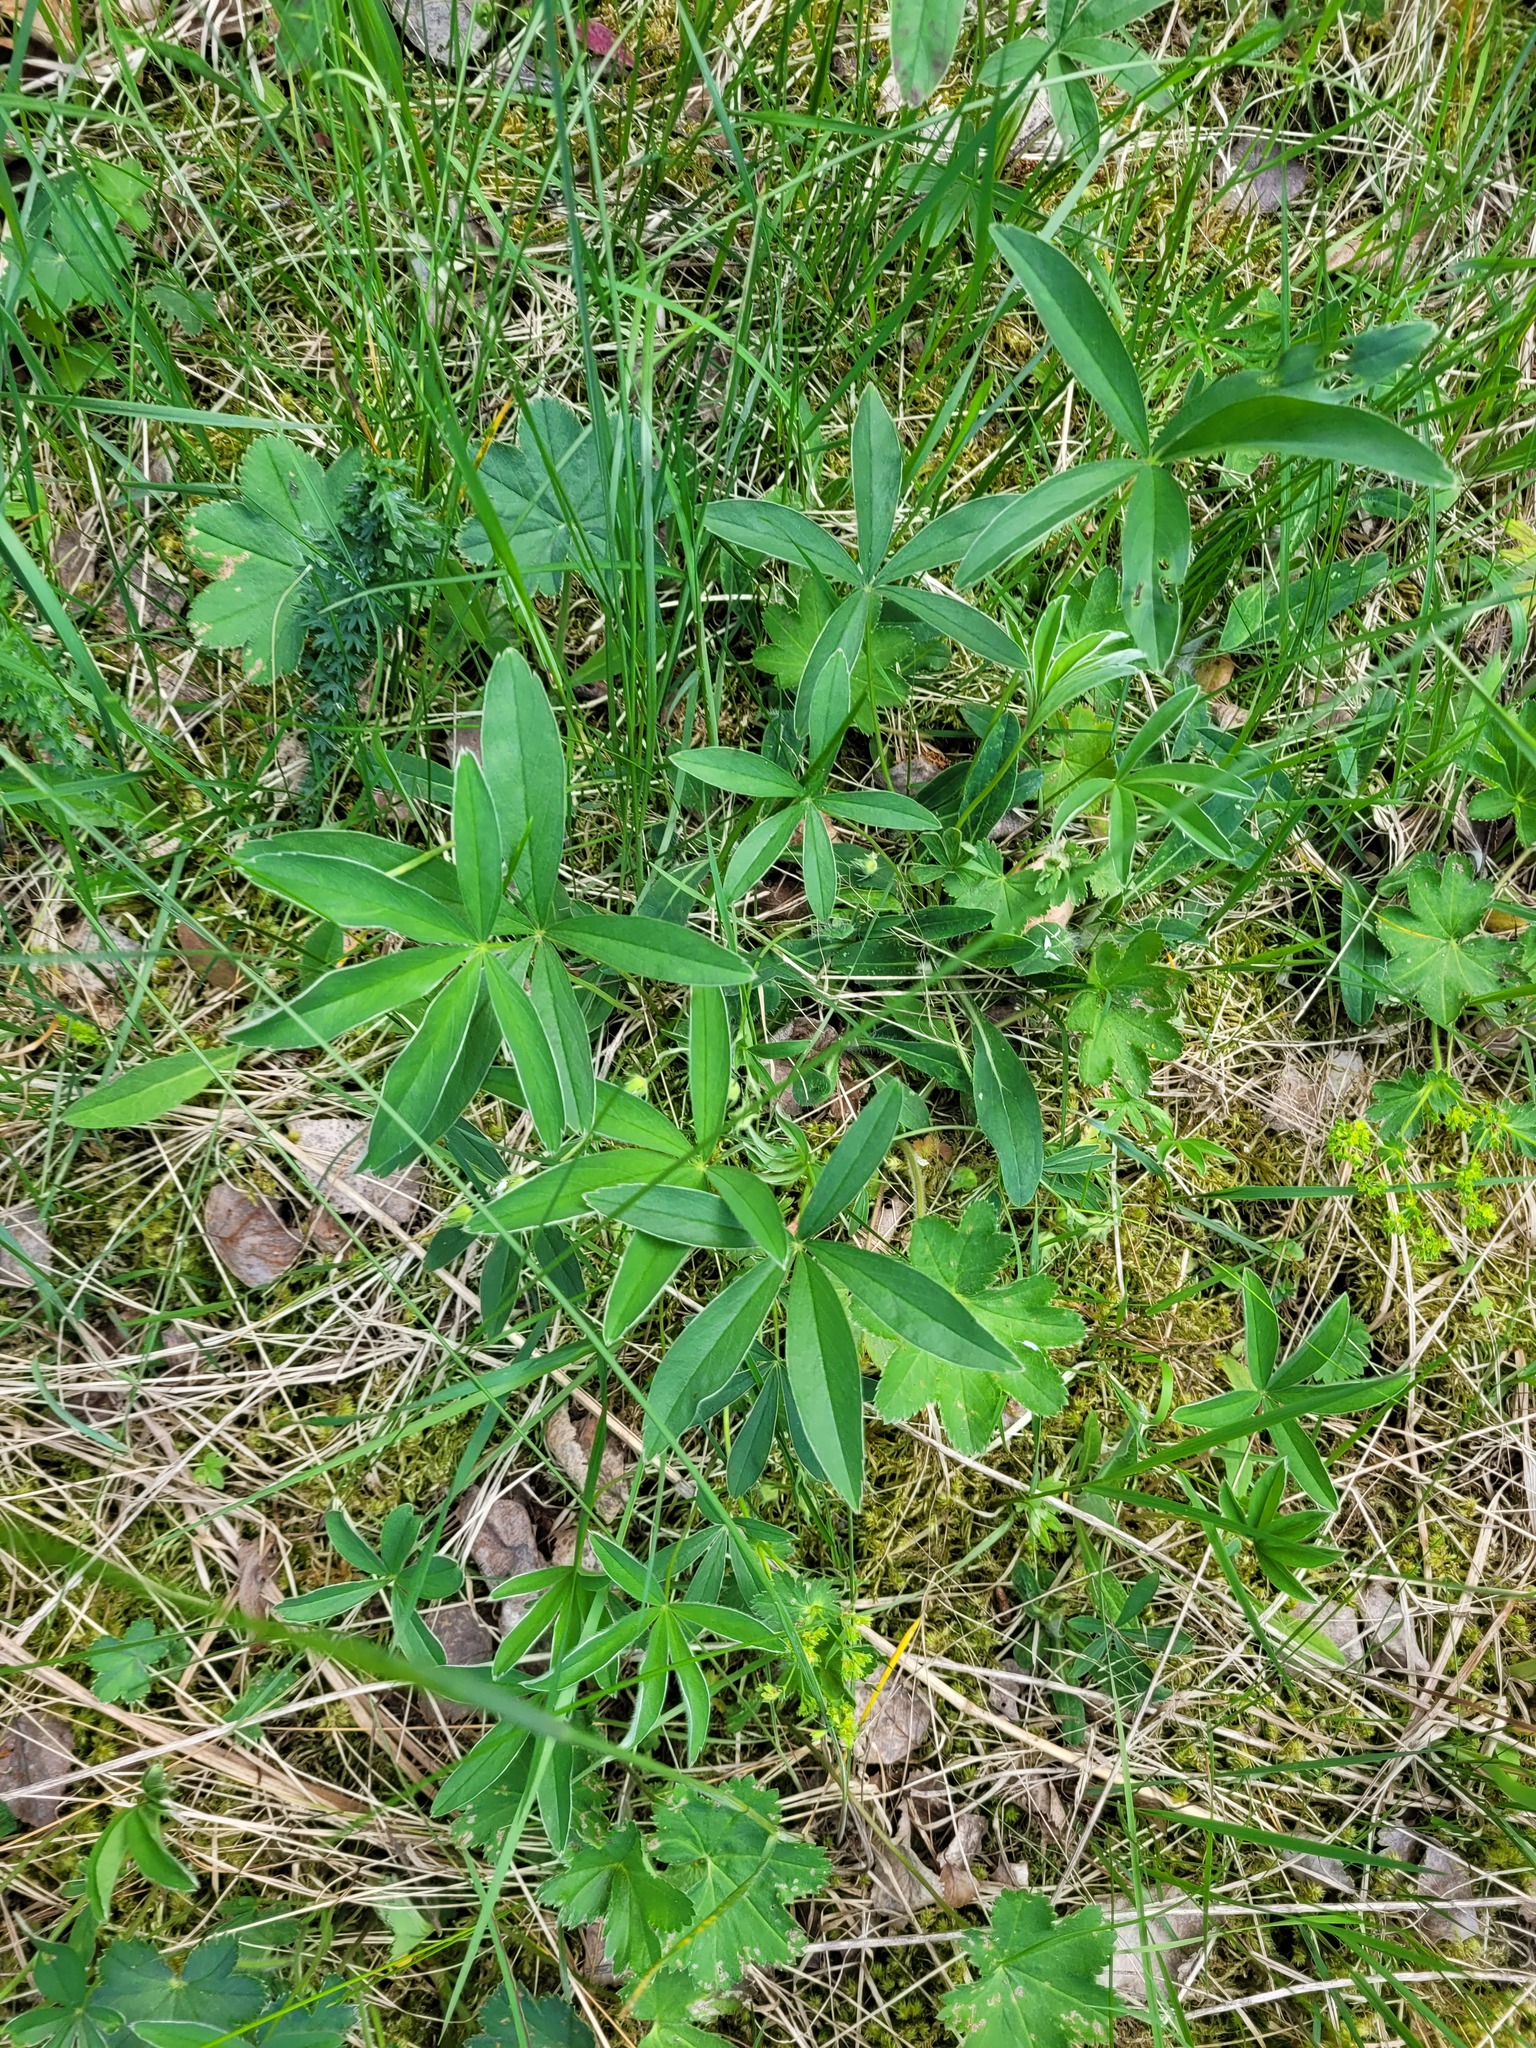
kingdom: Plantae
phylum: Tracheophyta
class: Magnoliopsida
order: Rosales
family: Rosaceae
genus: Potentilla
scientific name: Potentilla alba
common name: White cinquefoil
